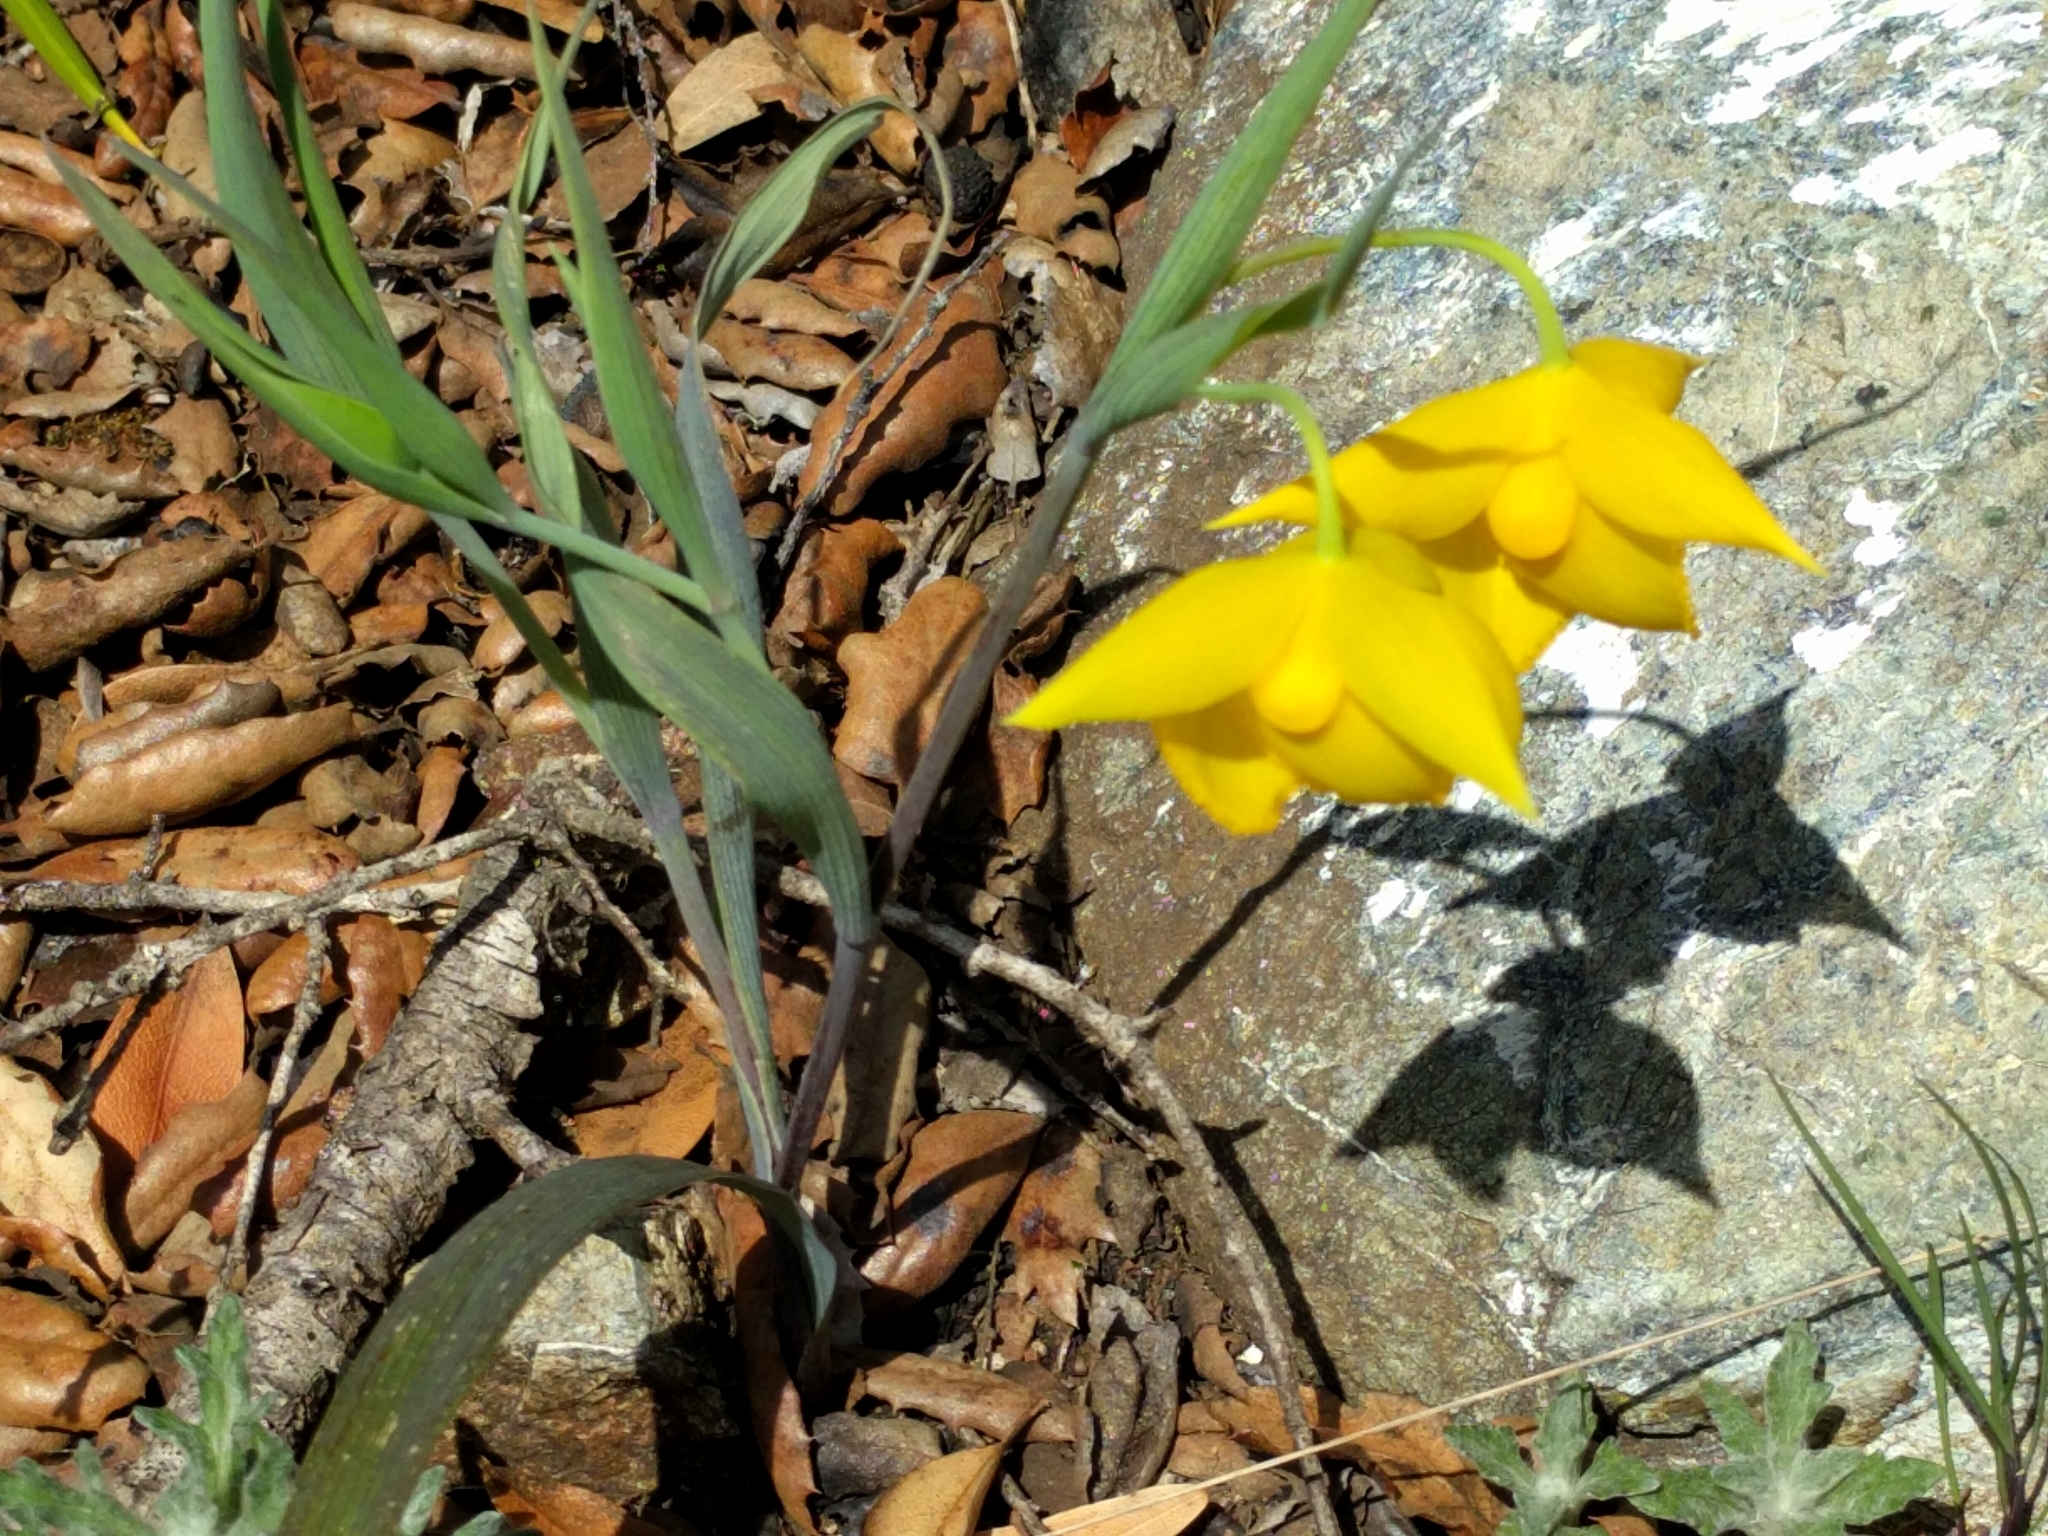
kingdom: Plantae
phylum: Tracheophyta
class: Liliopsida
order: Liliales
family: Liliaceae
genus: Calochortus
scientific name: Calochortus amabilis
